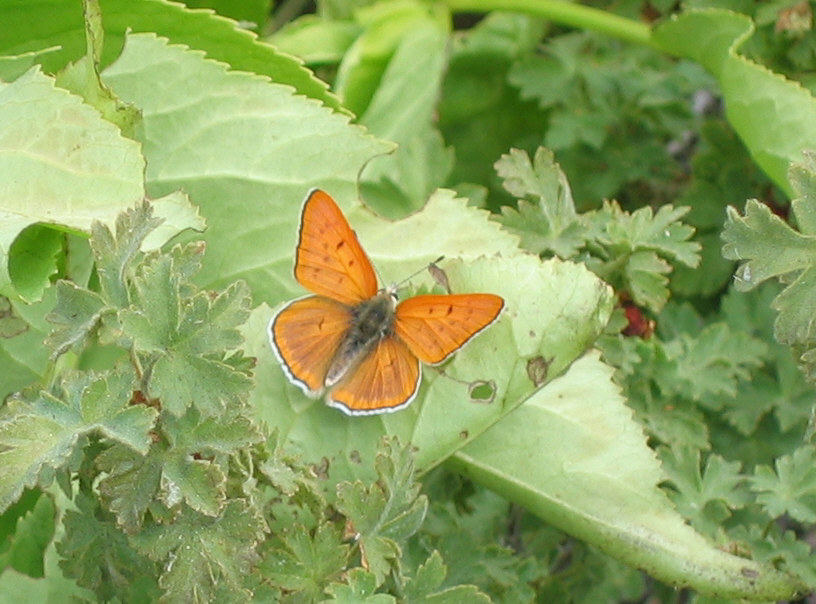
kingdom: Animalia
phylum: Arthropoda
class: Insecta
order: Lepidoptera
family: Lycaenidae
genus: Tharsalea
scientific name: Tharsalea rubidus
